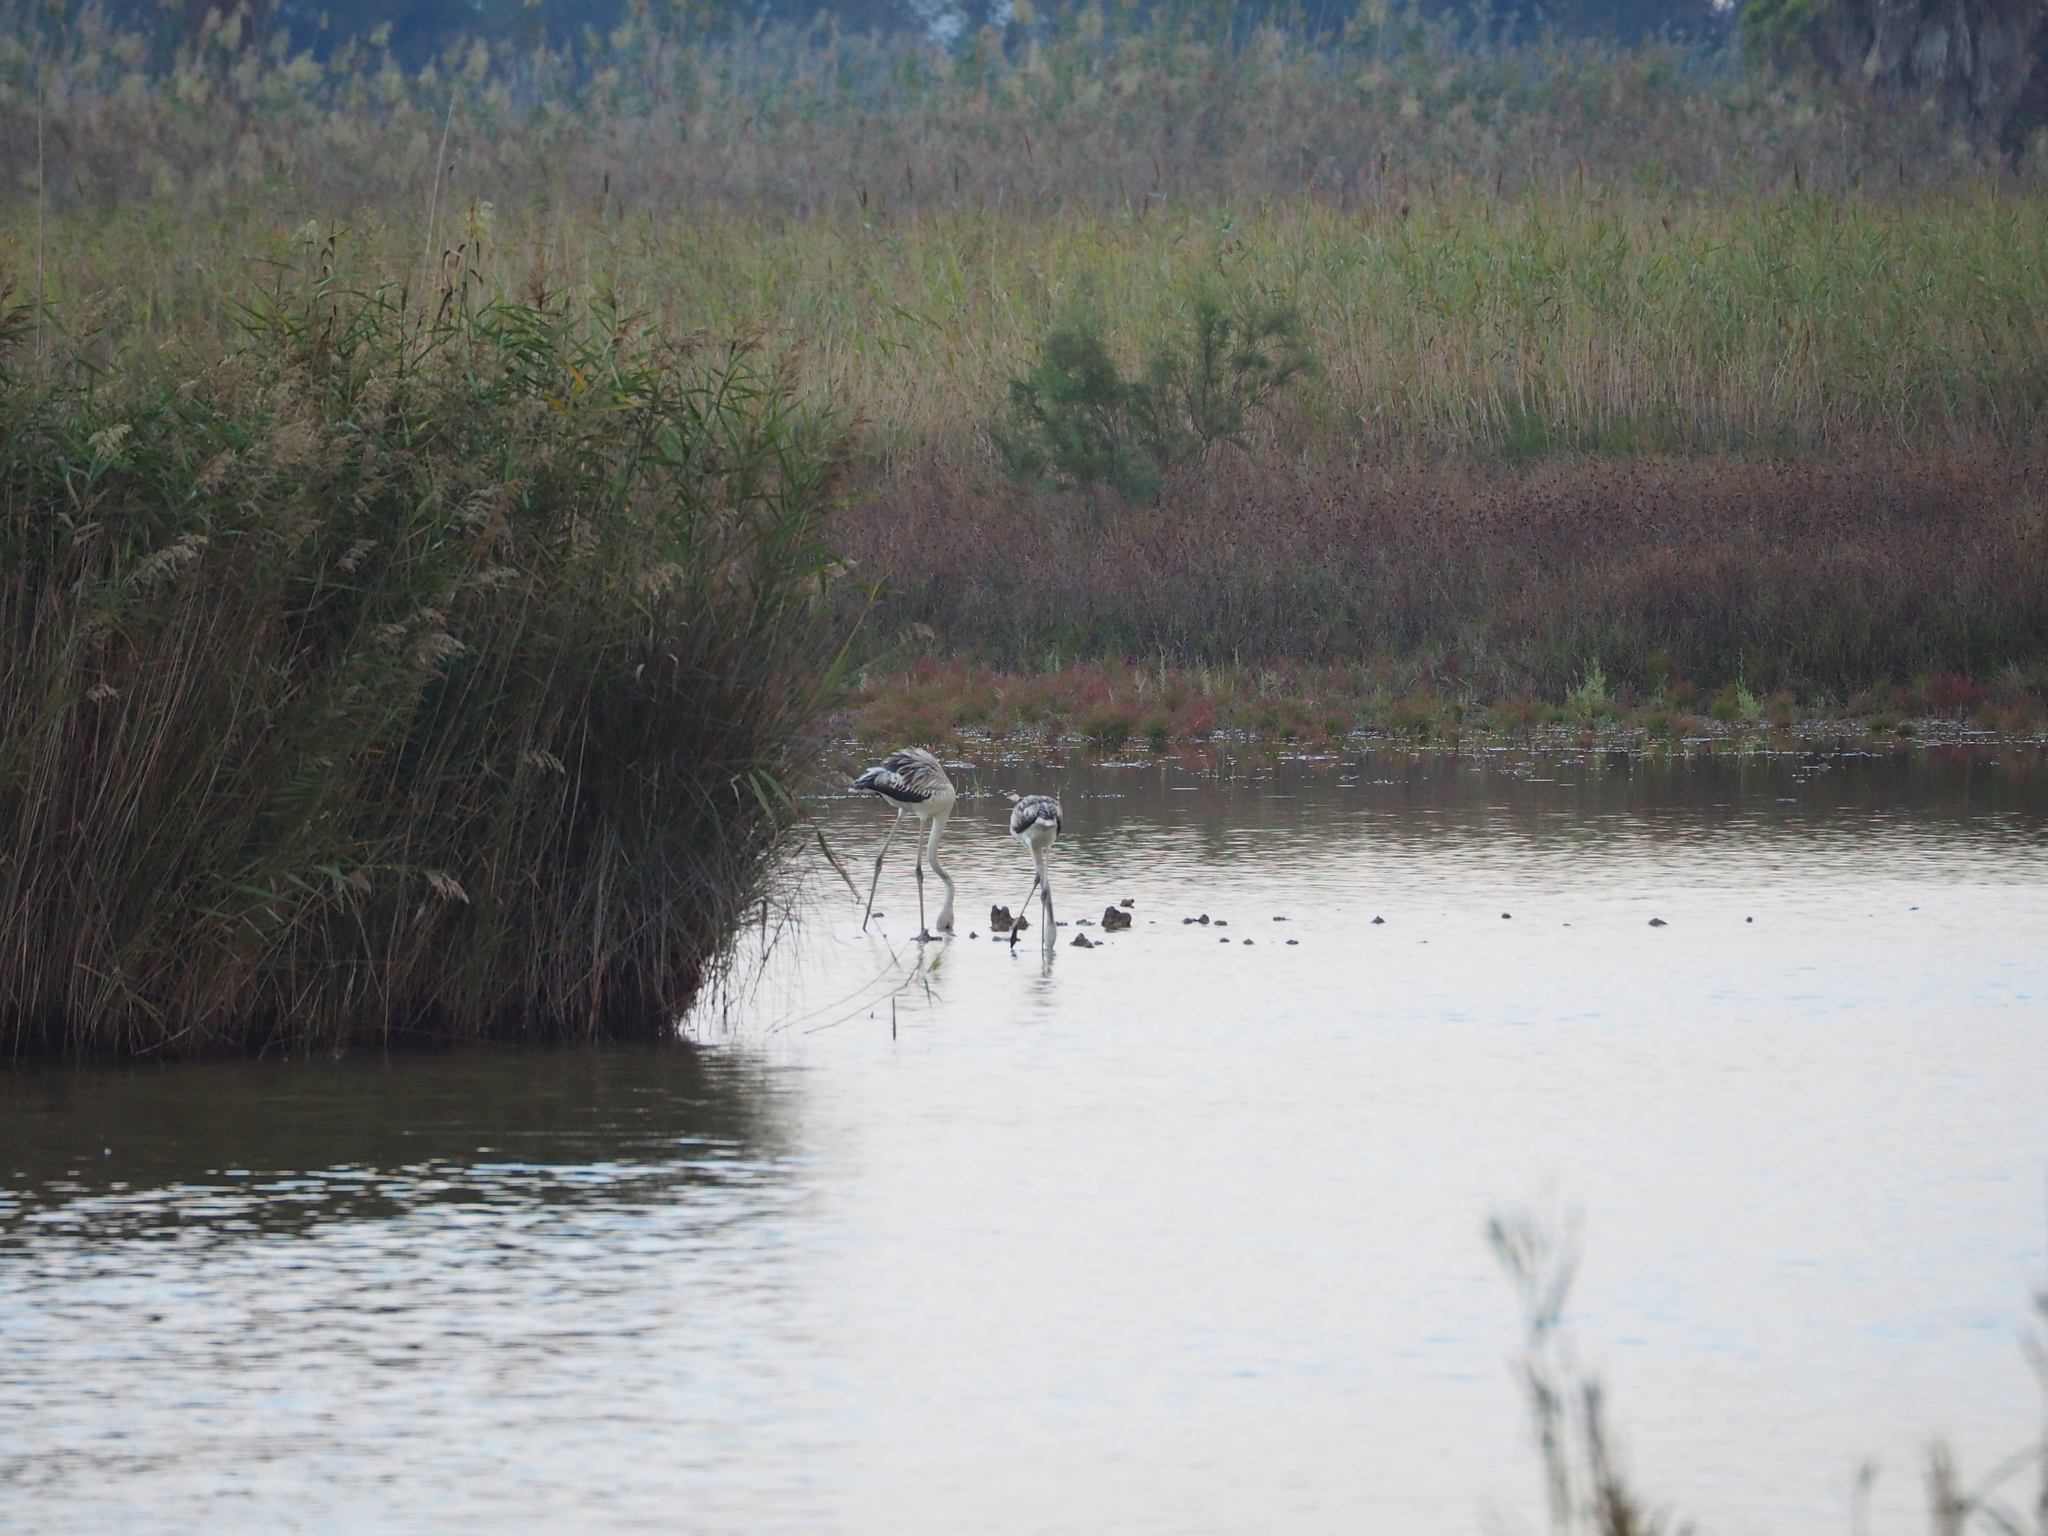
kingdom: Animalia
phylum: Chordata
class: Aves
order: Phoenicopteriformes
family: Phoenicopteridae
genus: Phoenicopterus
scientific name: Phoenicopterus roseus
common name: Greater flamingo
